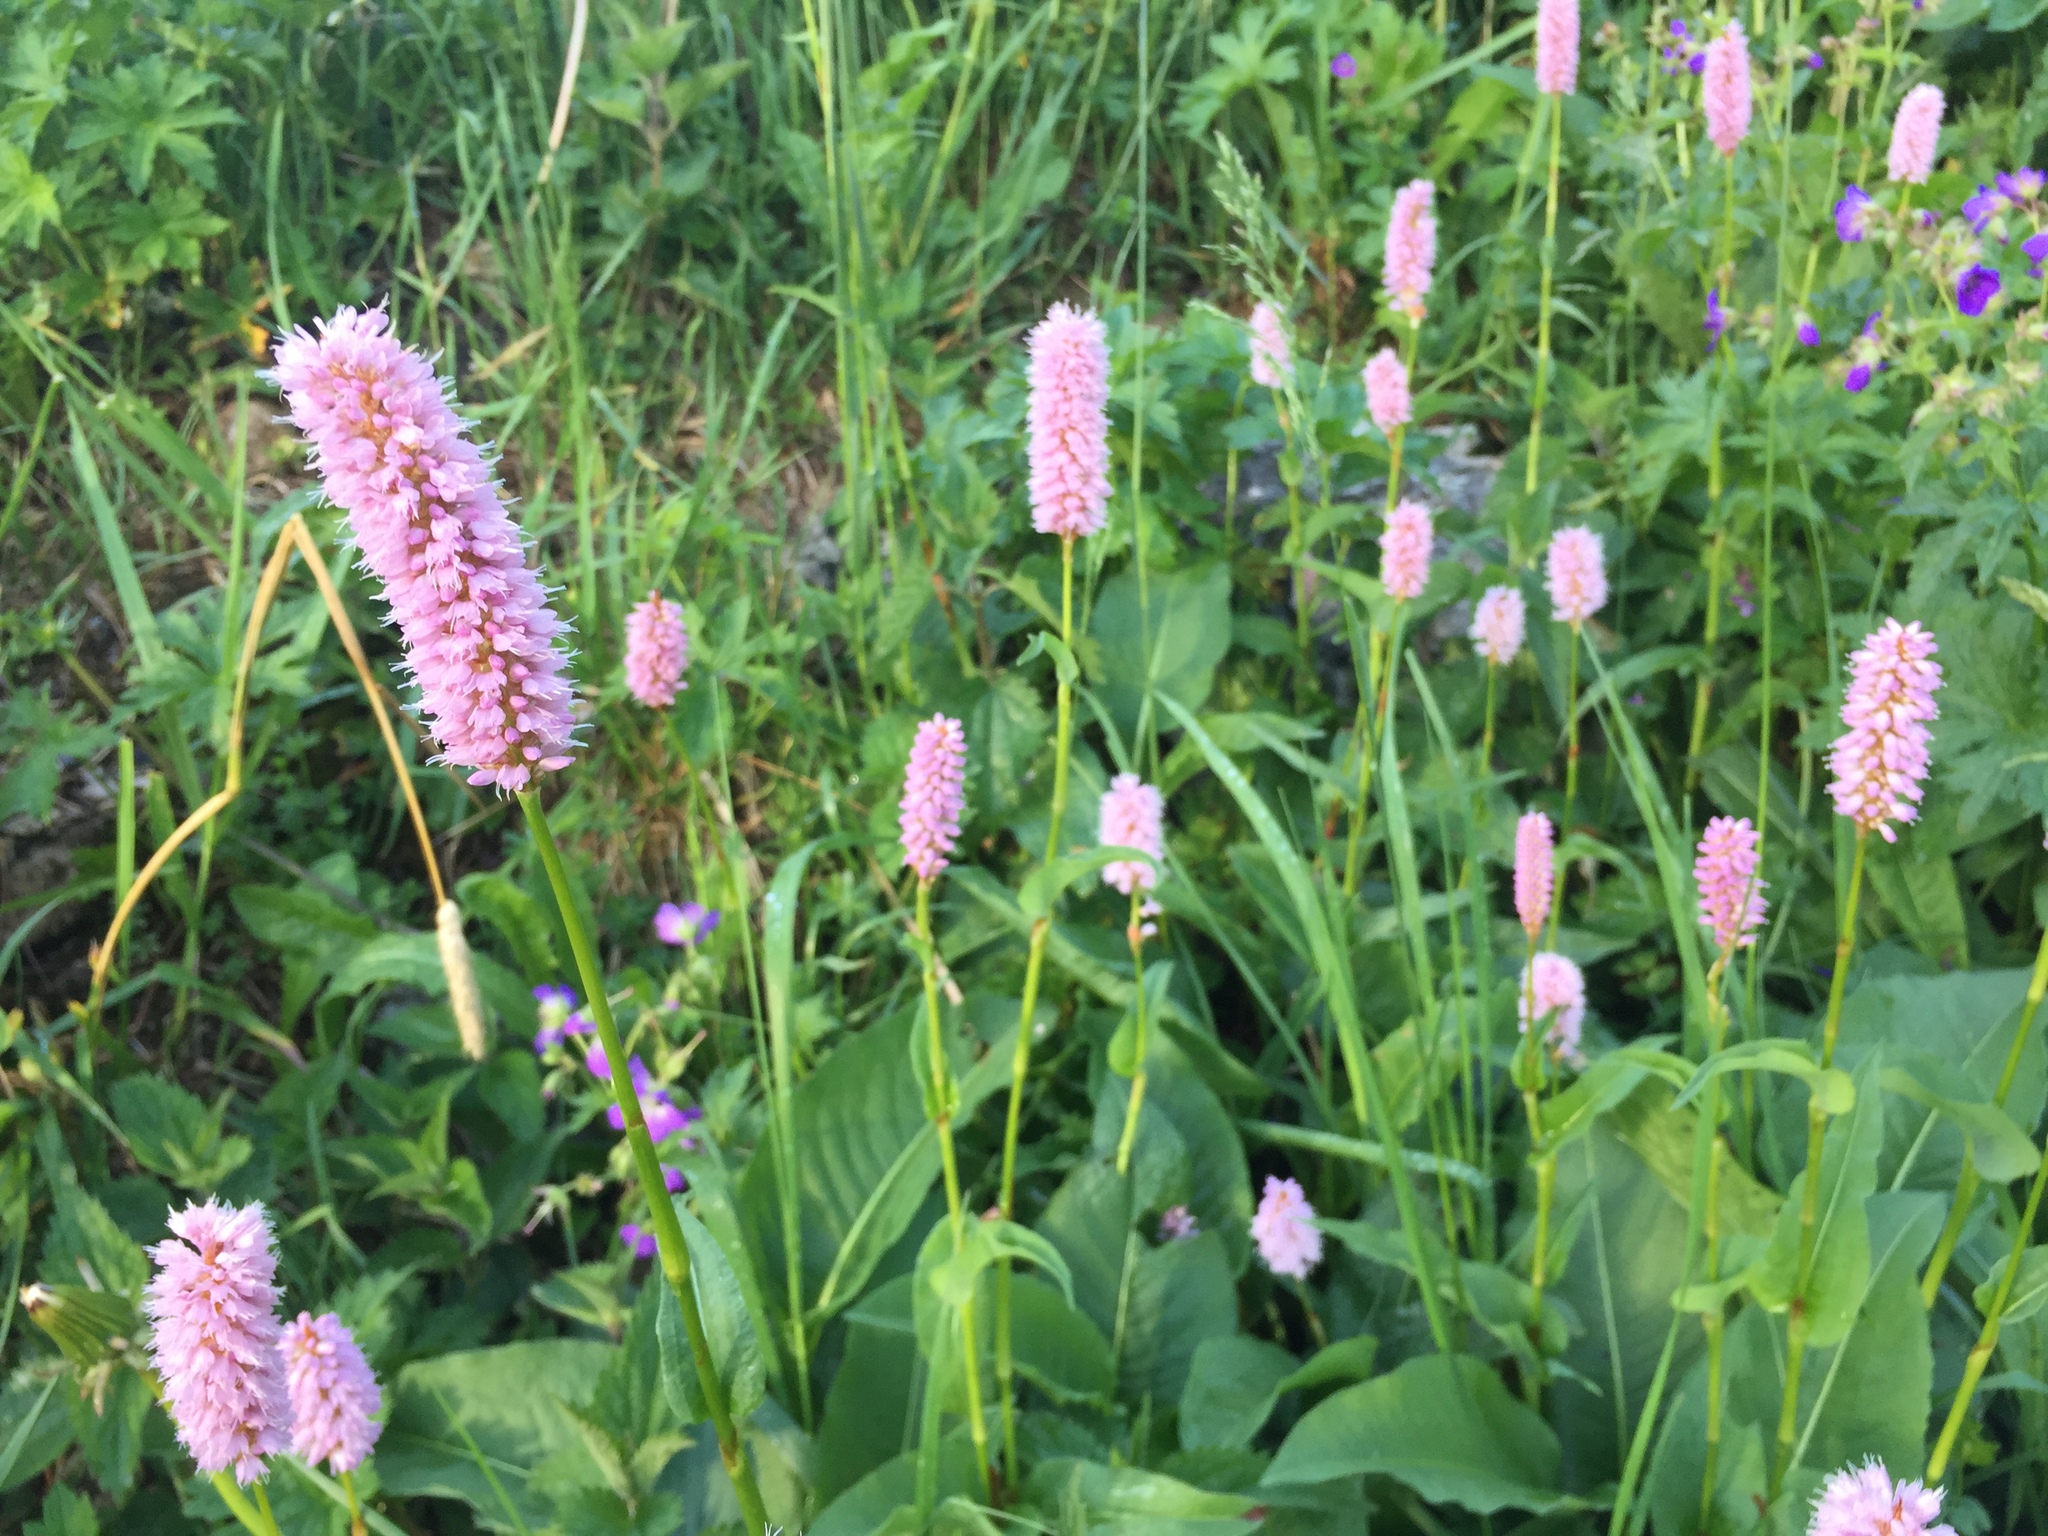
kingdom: Plantae
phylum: Tracheophyta
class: Magnoliopsida
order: Caryophyllales
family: Polygonaceae
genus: Bistorta
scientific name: Bistorta officinalis
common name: Common bistort
